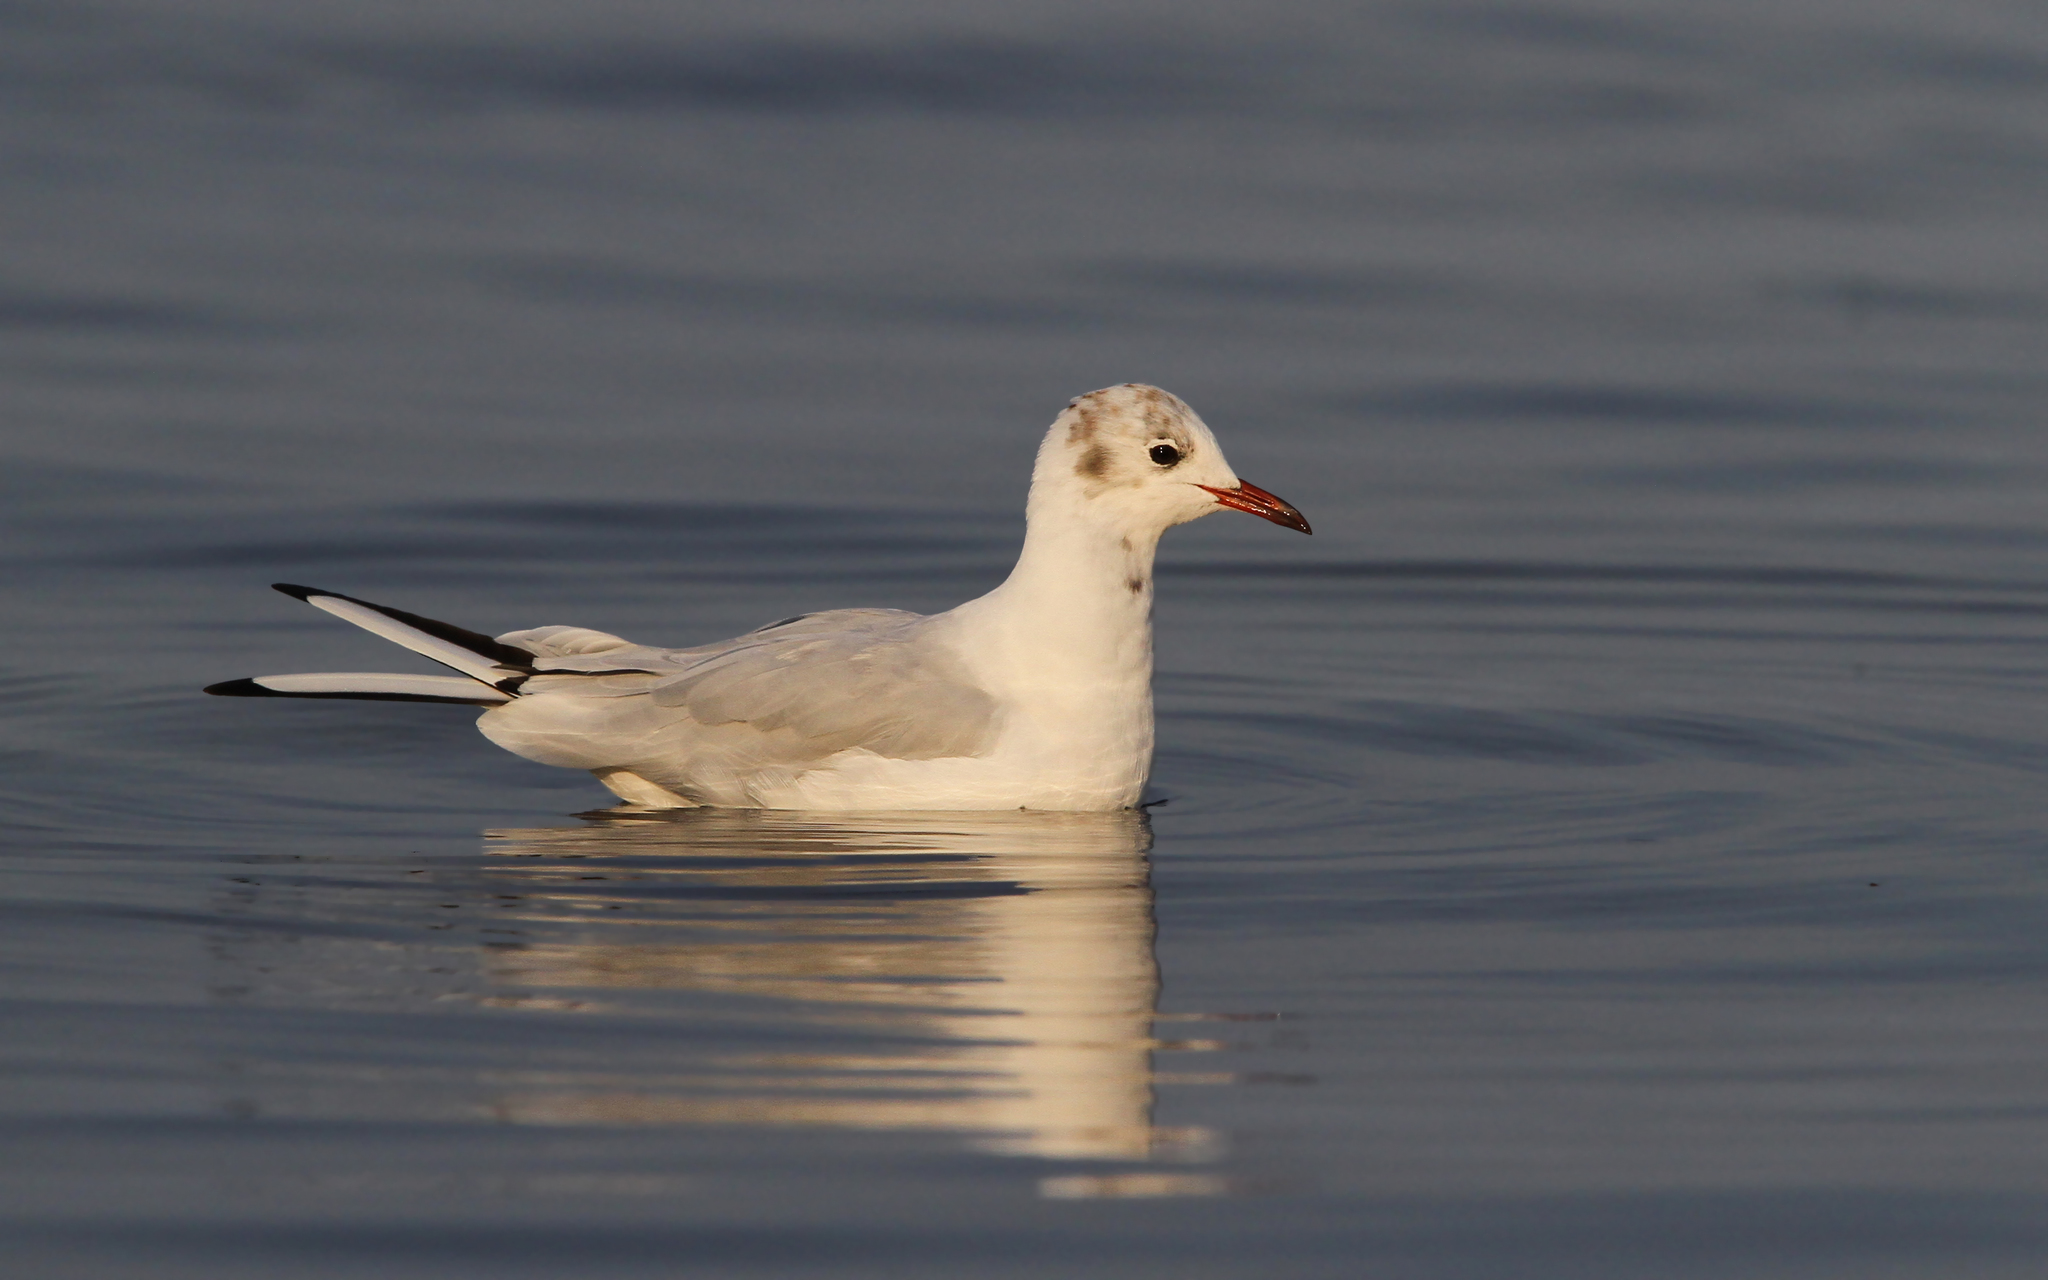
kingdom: Animalia
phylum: Chordata
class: Aves
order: Charadriiformes
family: Laridae
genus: Chroicocephalus
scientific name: Chroicocephalus ridibundus
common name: Black-headed gull
